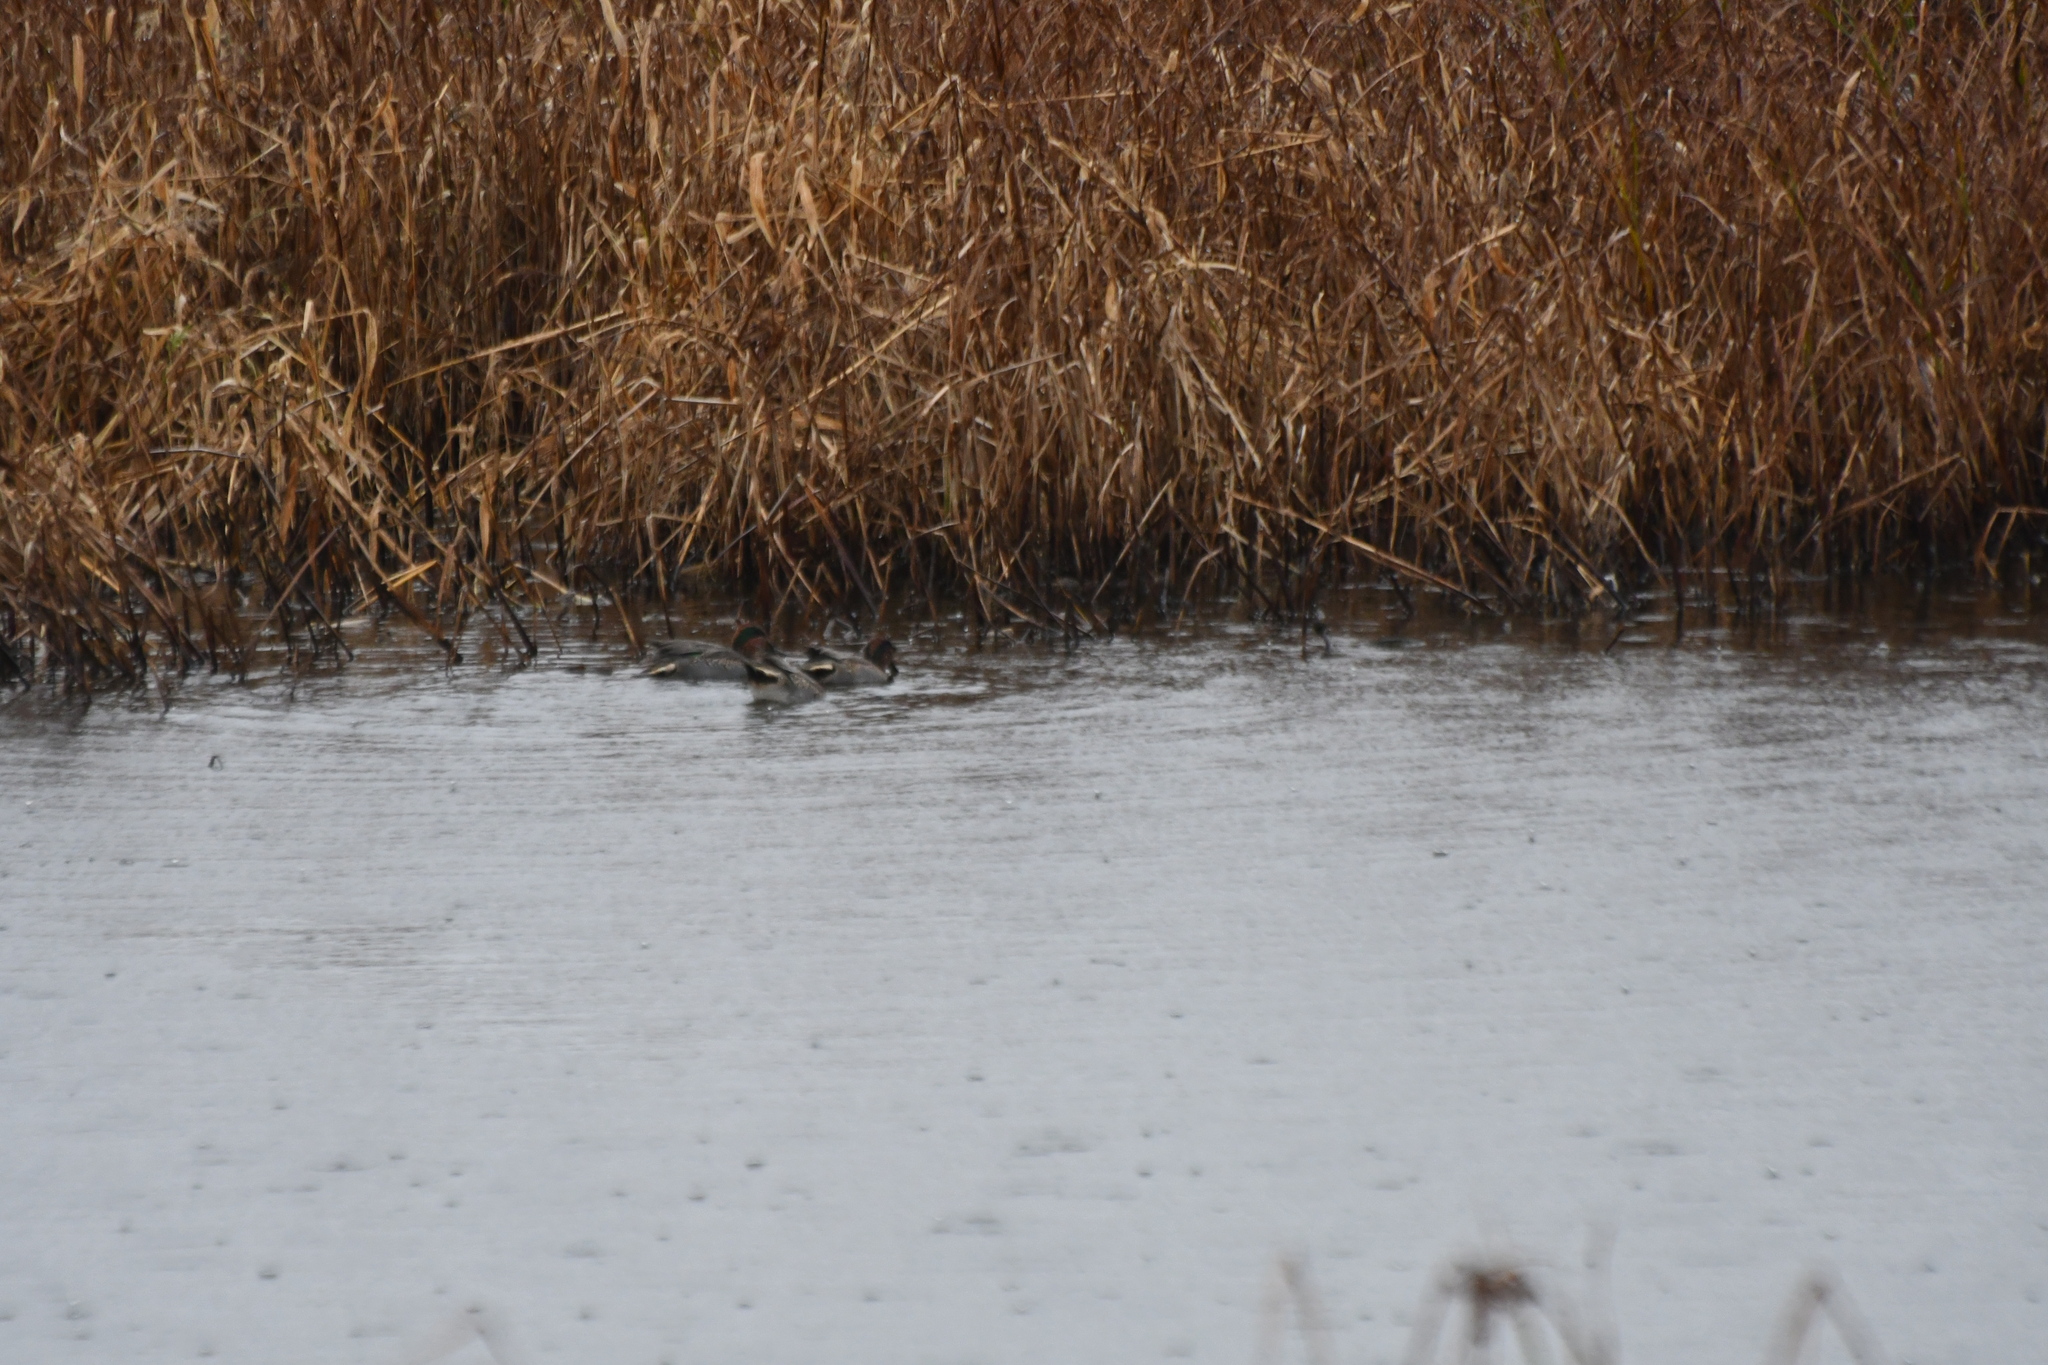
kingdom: Animalia
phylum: Chordata
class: Aves
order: Anseriformes
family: Anatidae
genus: Anas
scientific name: Anas crecca
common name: Eurasian teal
